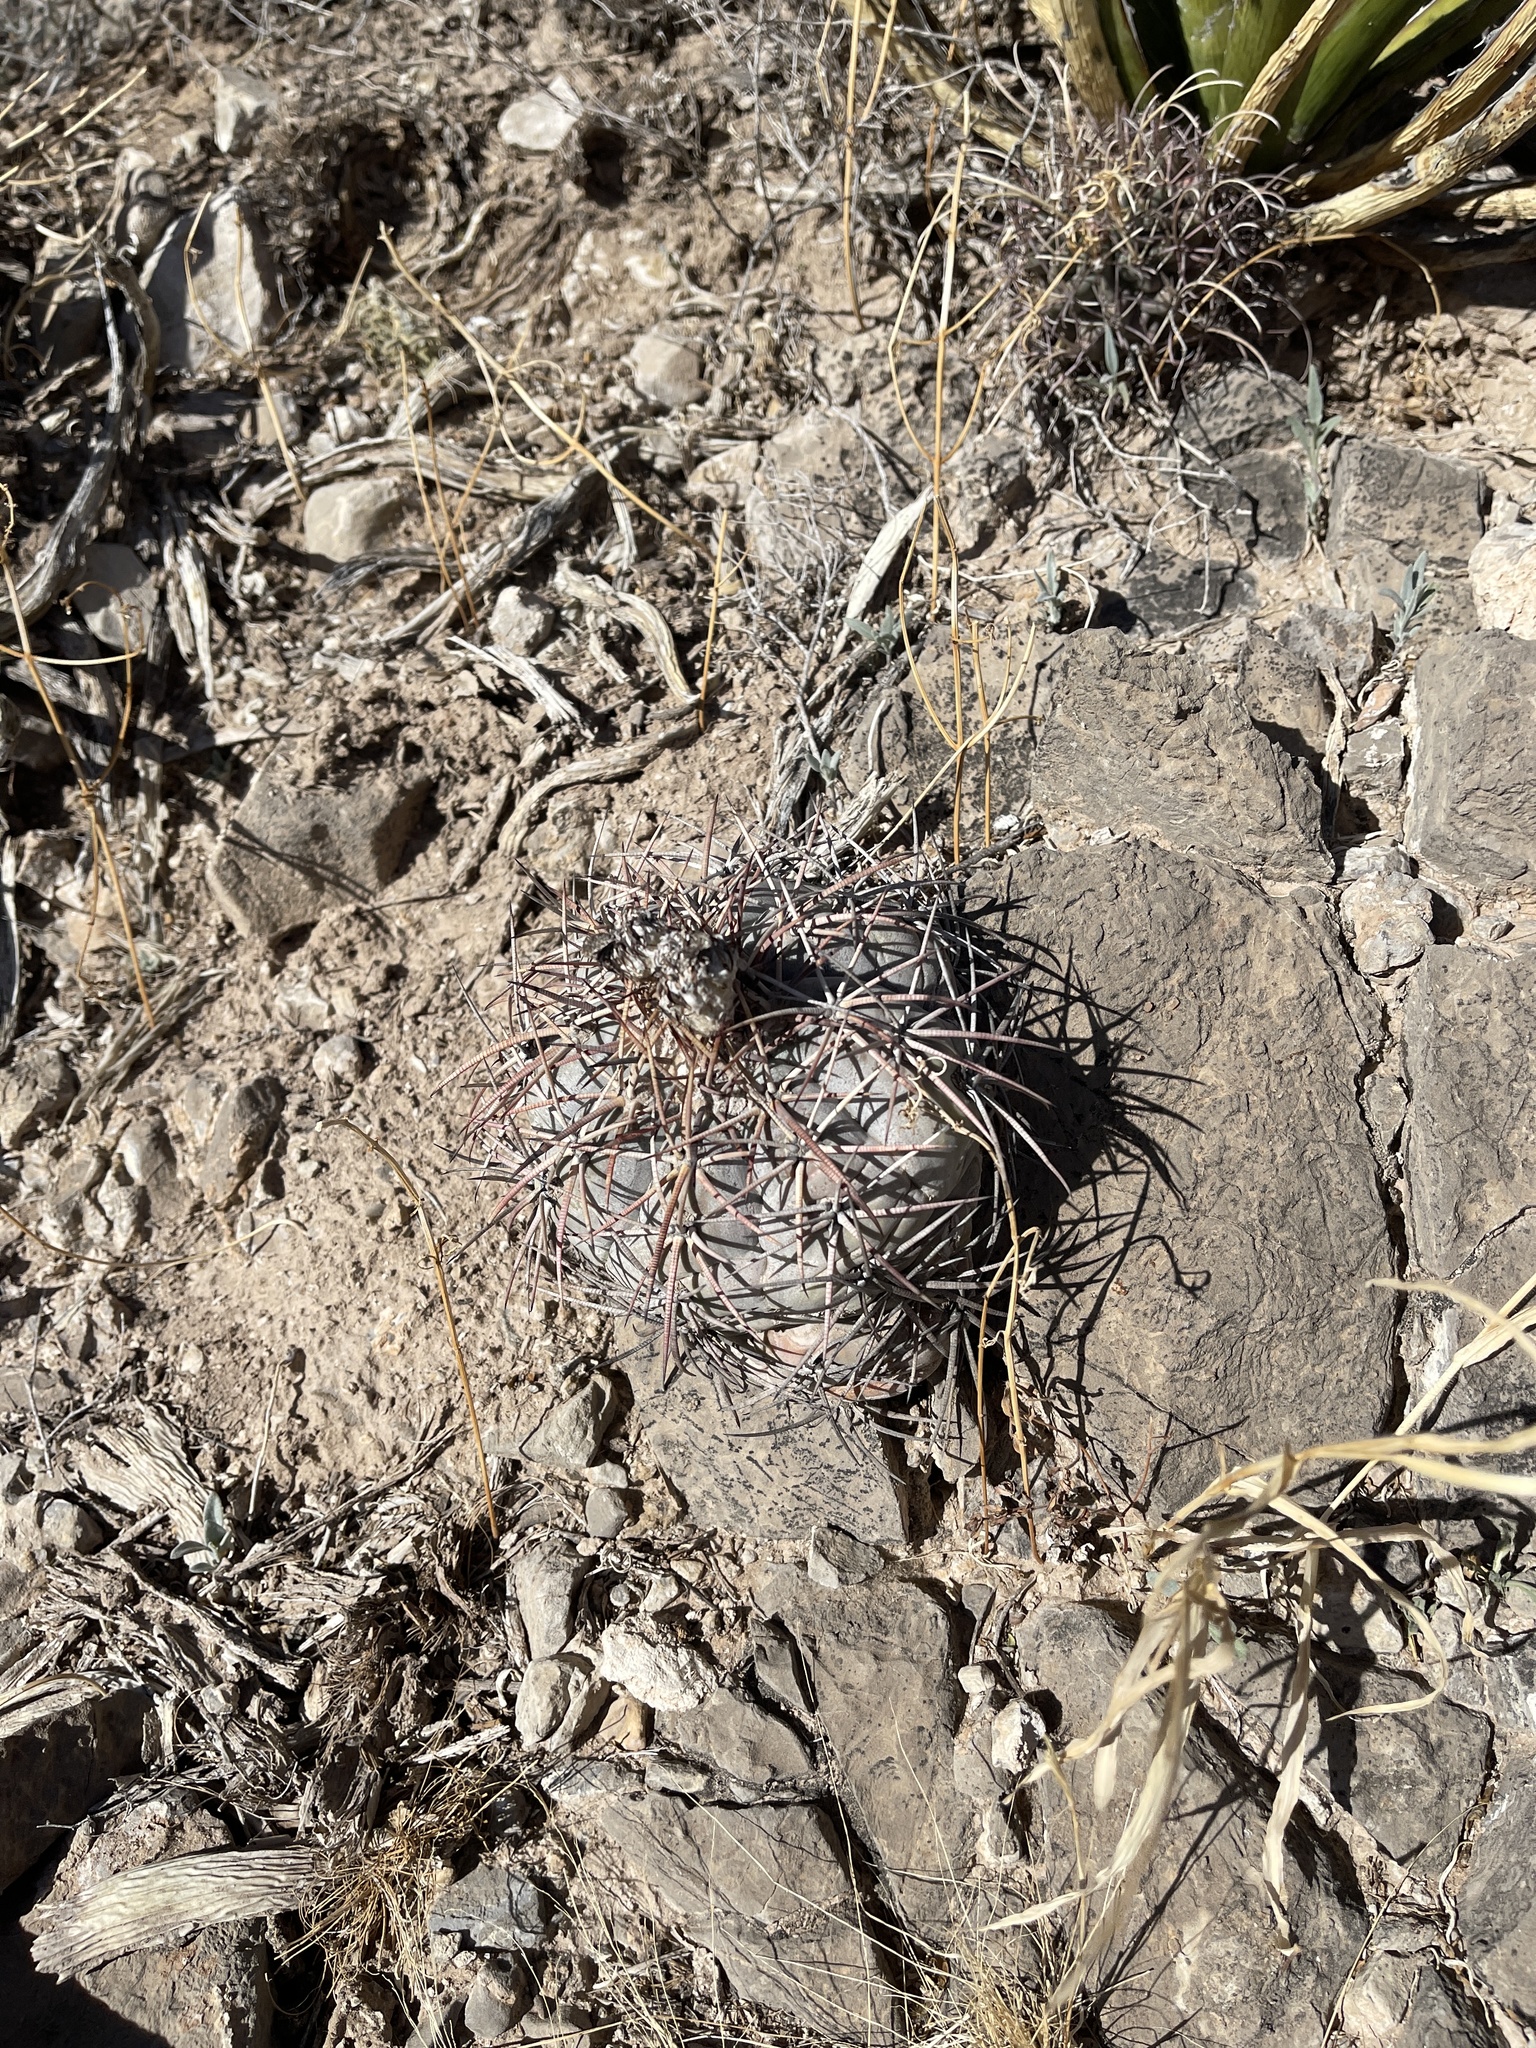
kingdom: Plantae
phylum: Tracheophyta
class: Magnoliopsida
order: Caryophyllales
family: Cactaceae
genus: Echinocactus
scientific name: Echinocactus horizonthalonius
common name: Devilshead
